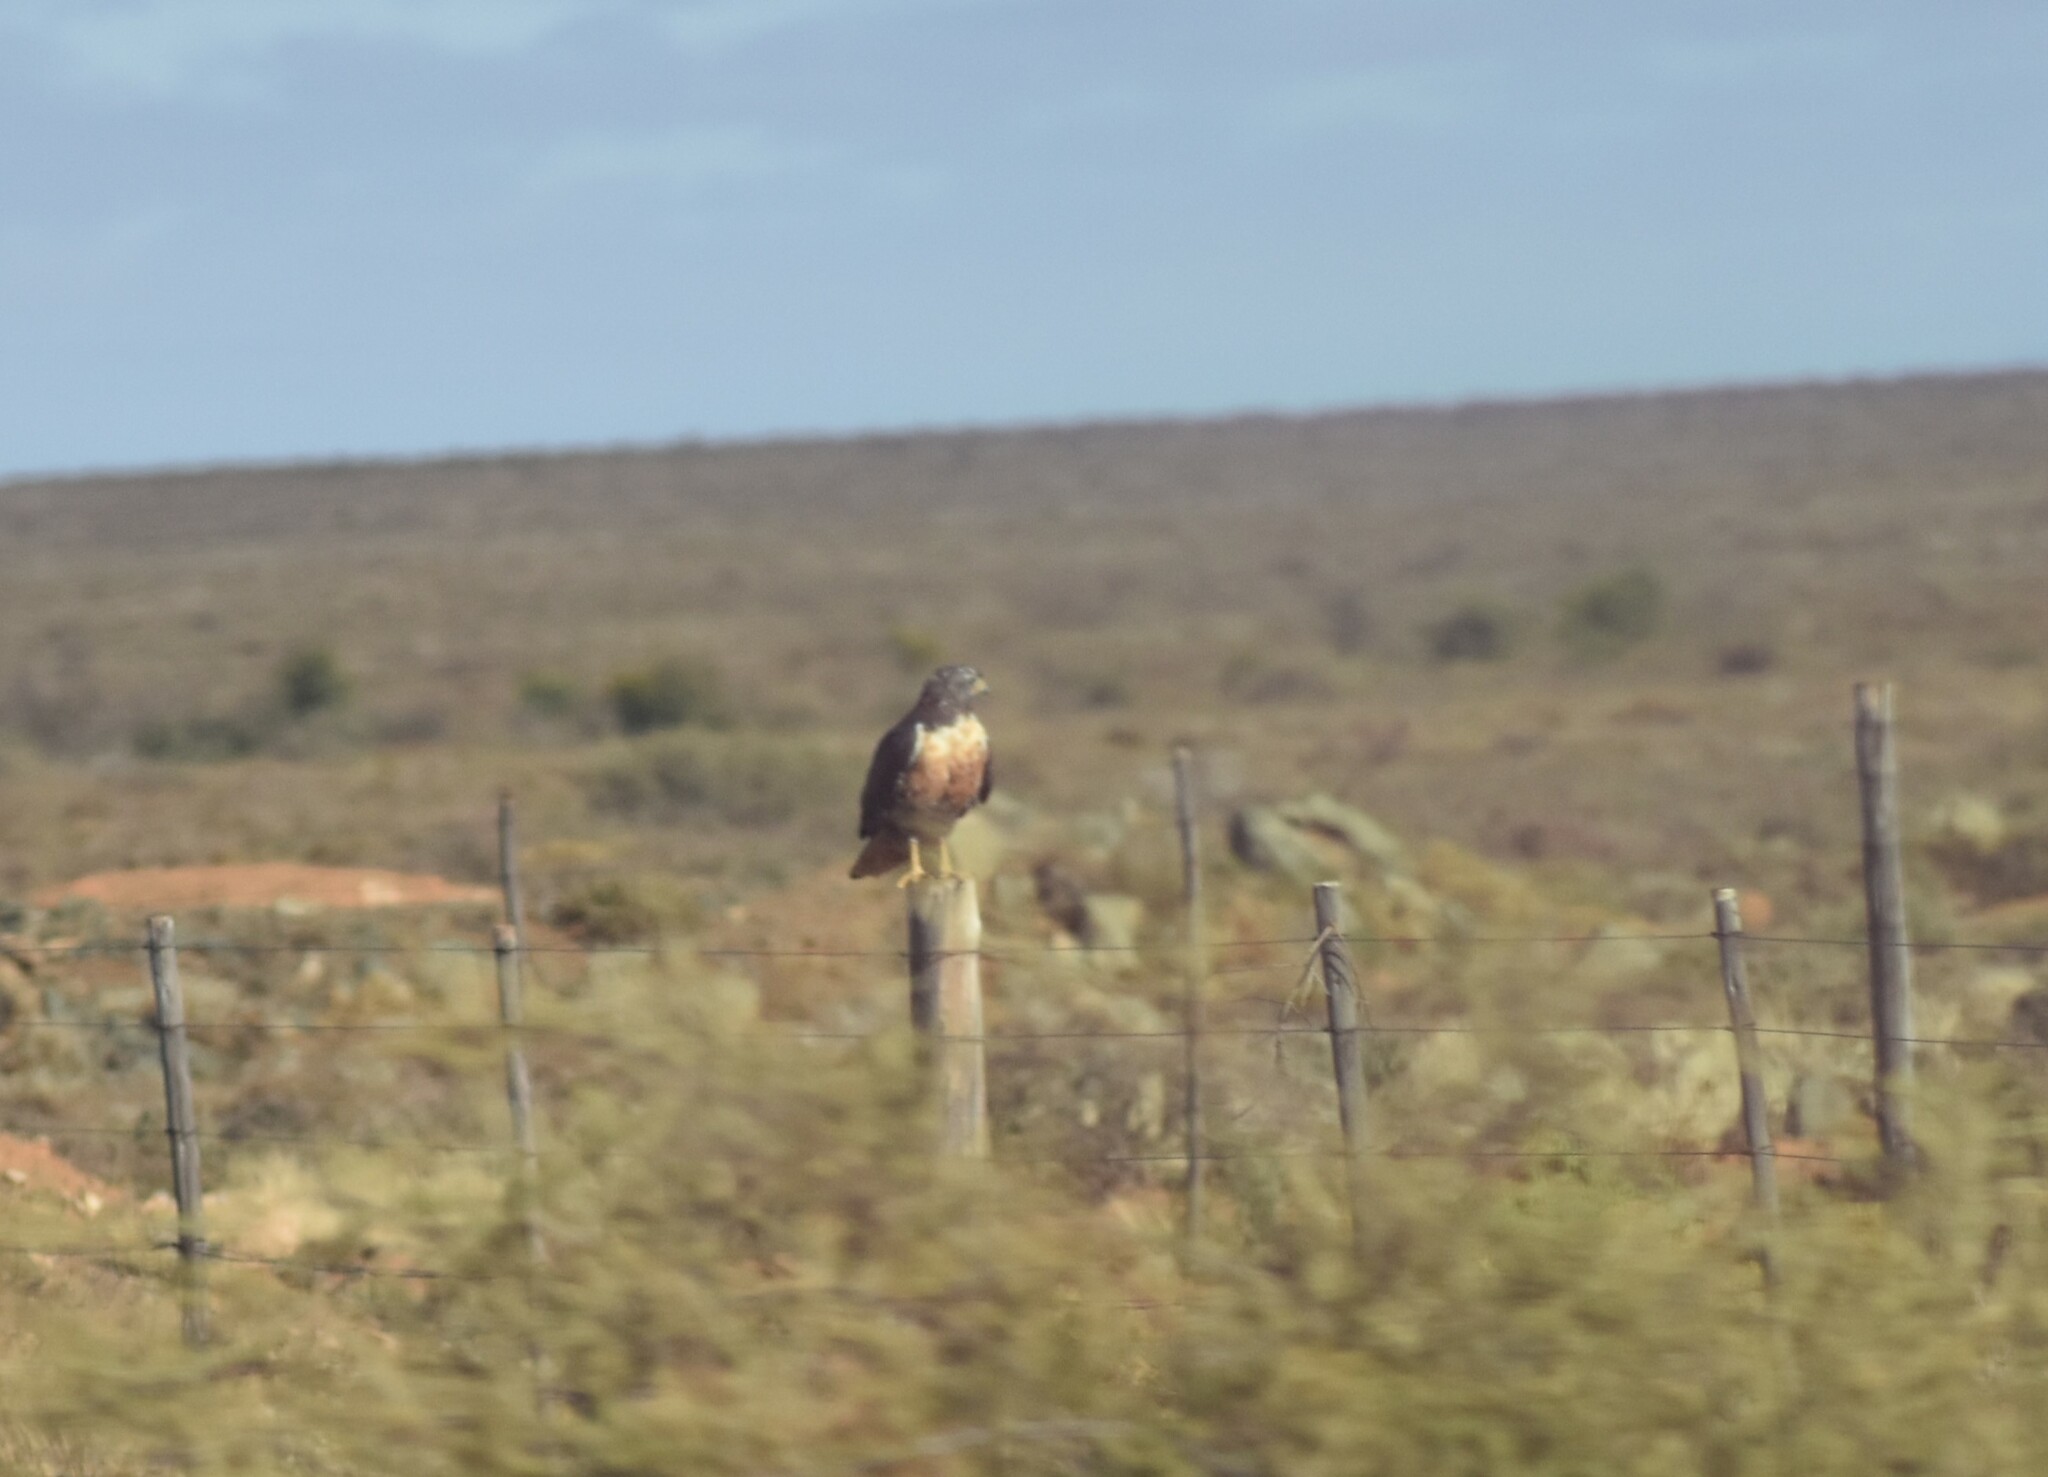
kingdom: Animalia
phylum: Chordata
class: Aves
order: Accipitriformes
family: Accipitridae
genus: Buteo
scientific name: Buteo rufofuscus
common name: Jackal buzzard
